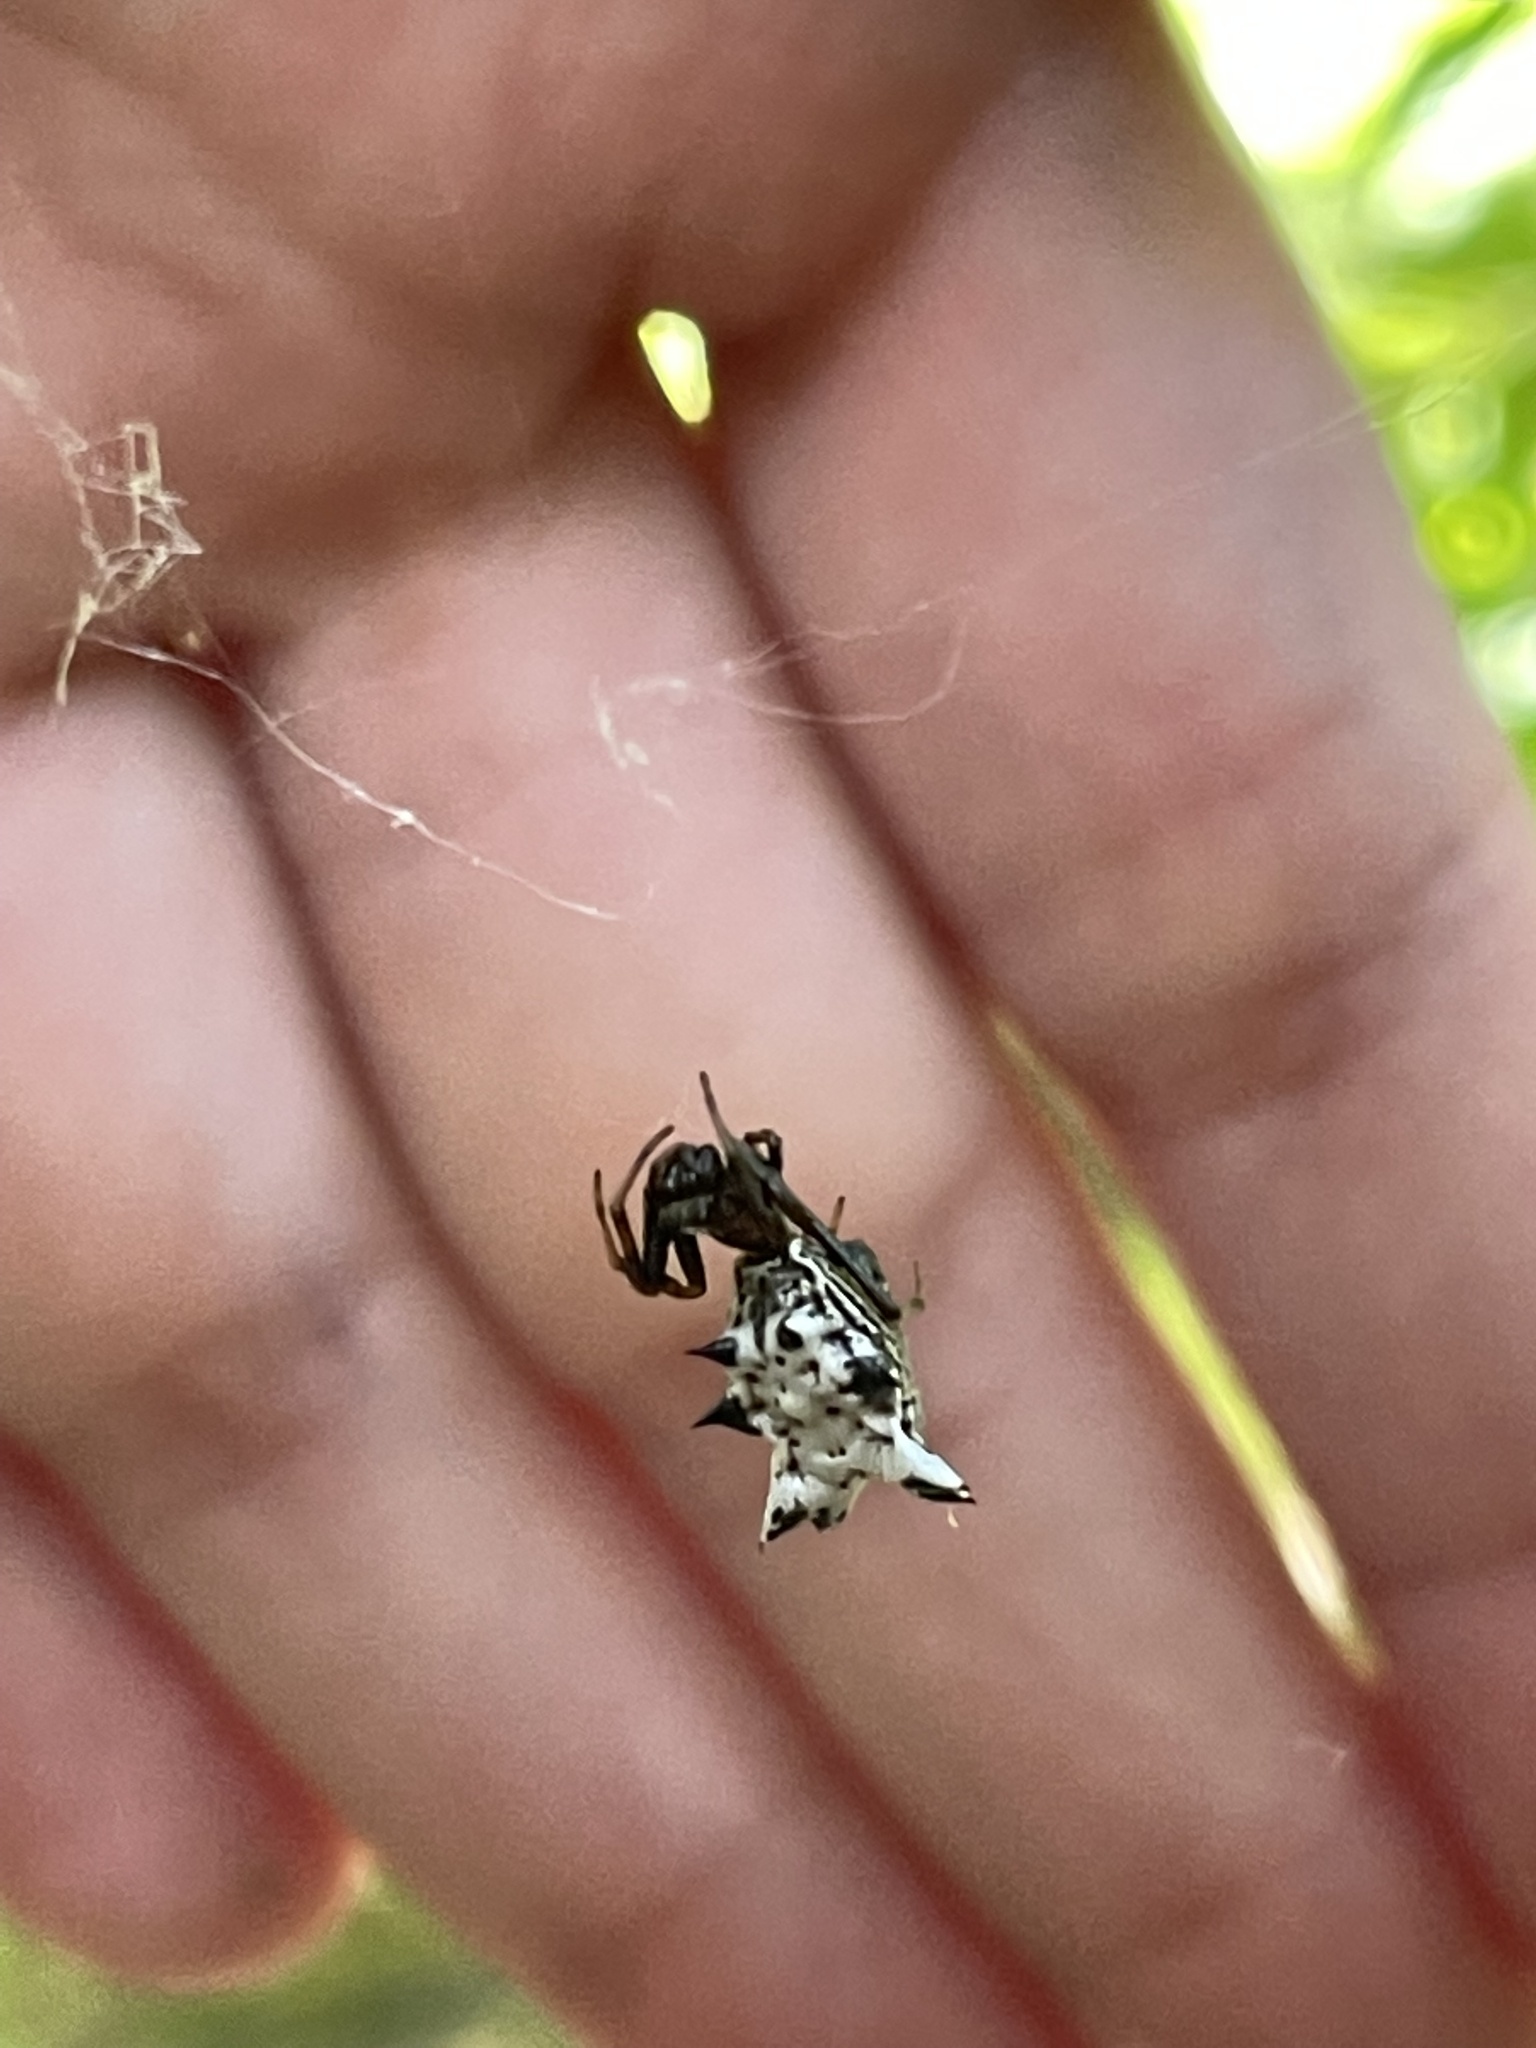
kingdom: Animalia
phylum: Arthropoda
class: Arachnida
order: Araneae
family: Araneidae
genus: Micrathena
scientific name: Micrathena gracilis
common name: Orb weavers
